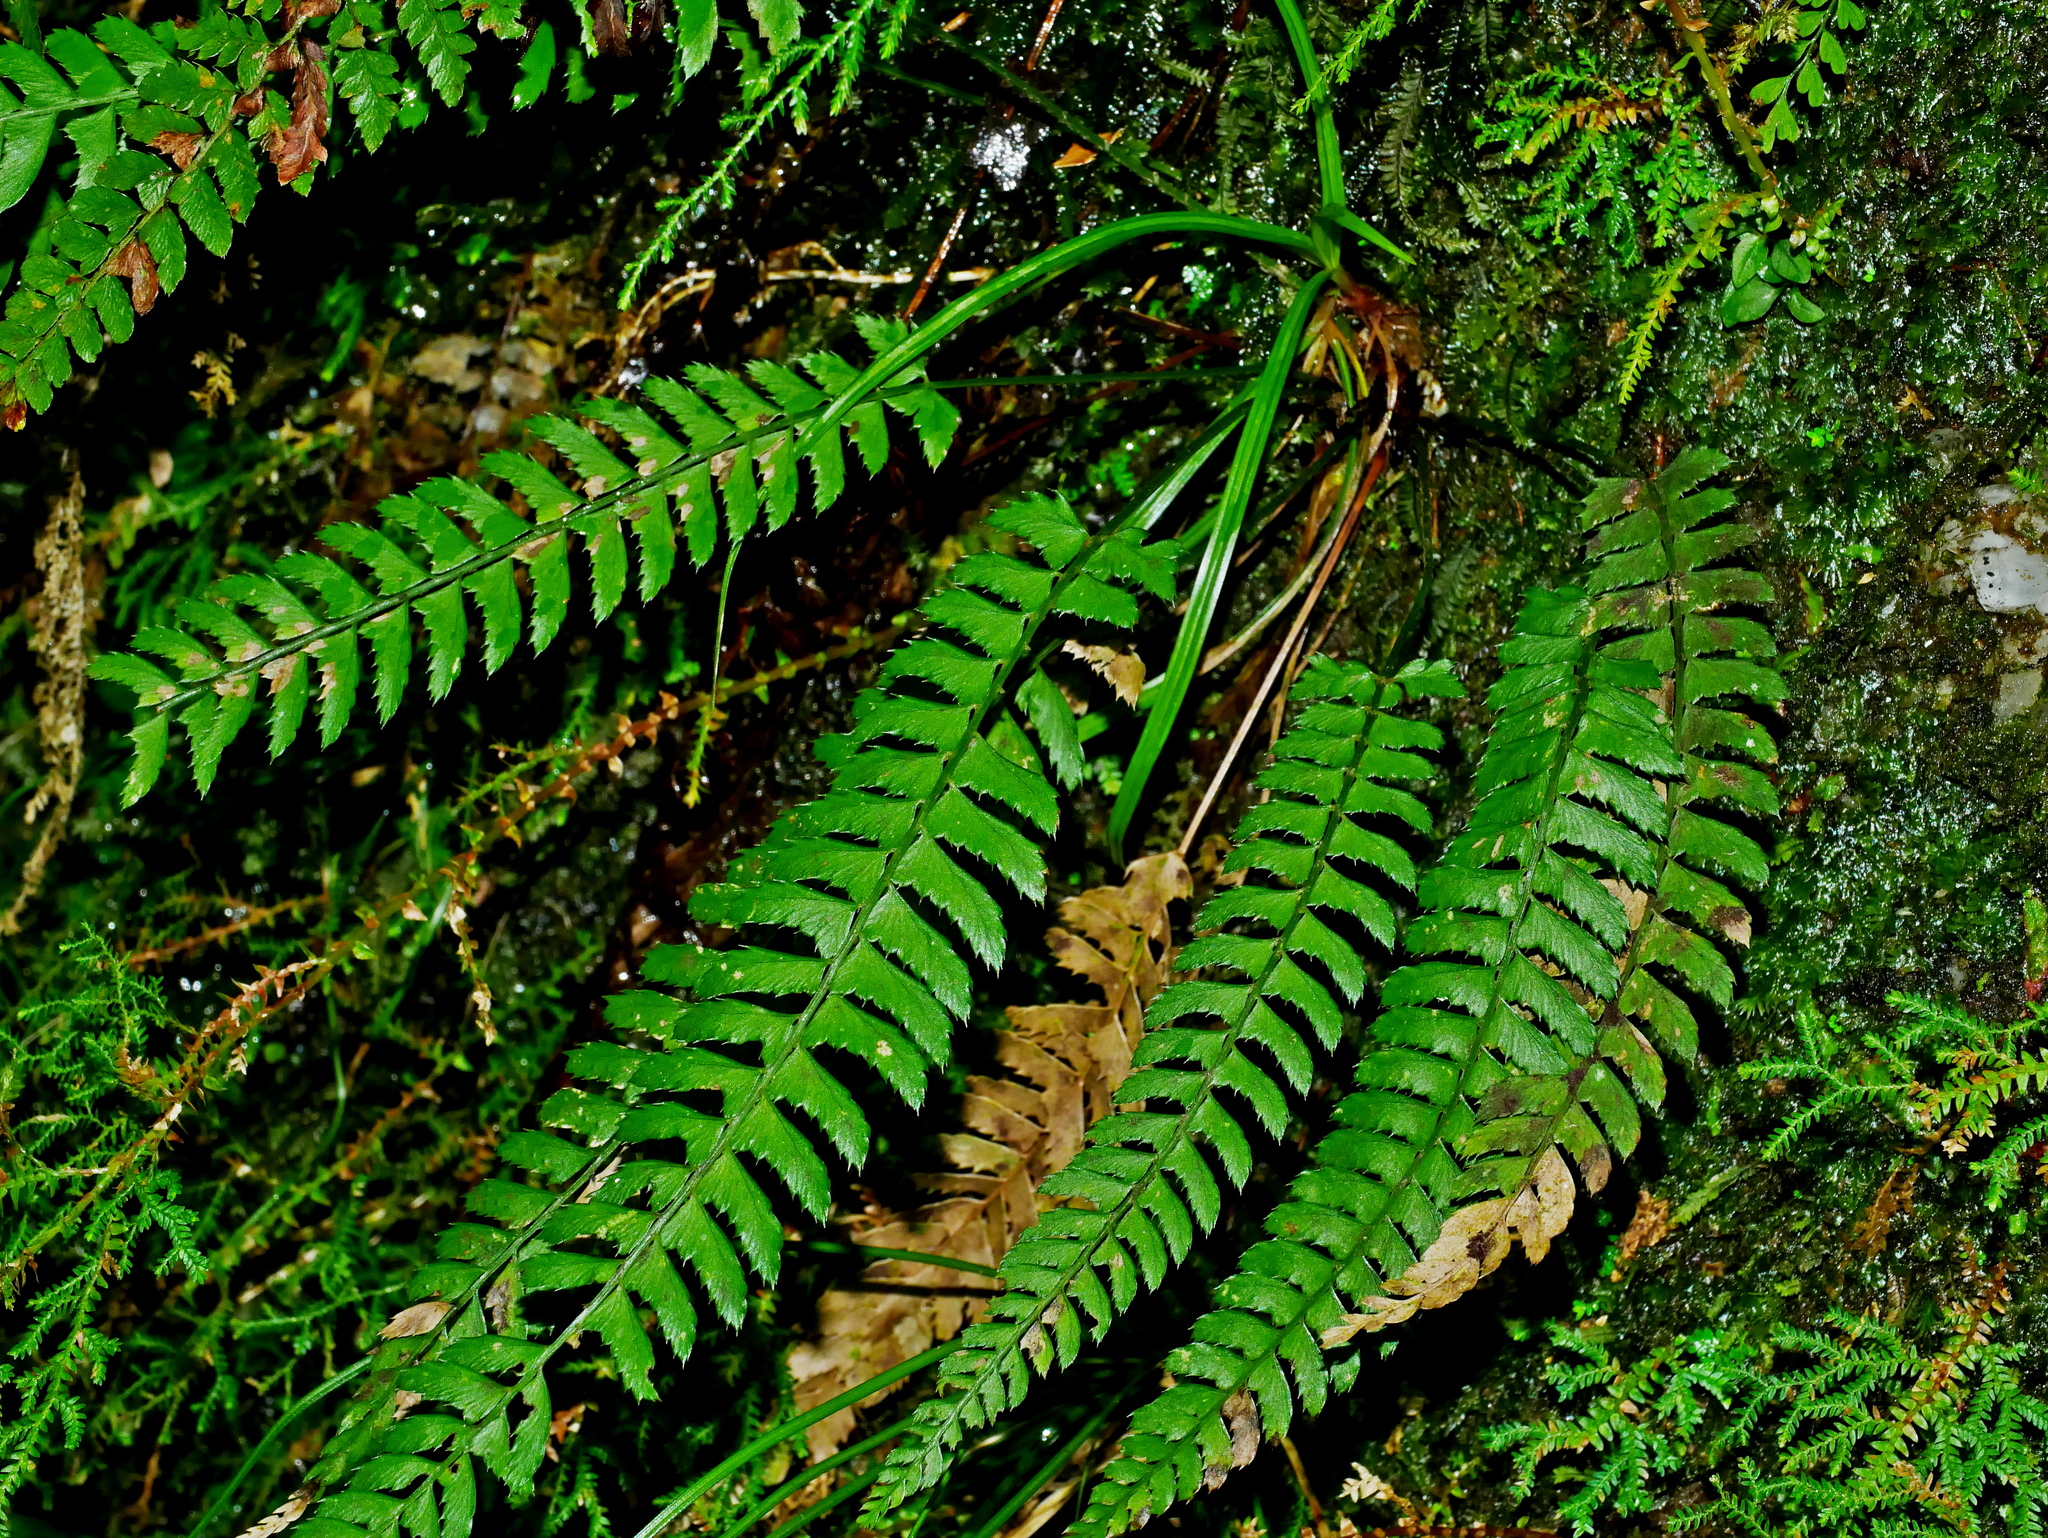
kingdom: Plantae
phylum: Tracheophyta
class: Polypodiopsida
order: Polypodiales
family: Dryopteridaceae
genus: Polystichum
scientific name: Polystichum hancockii
